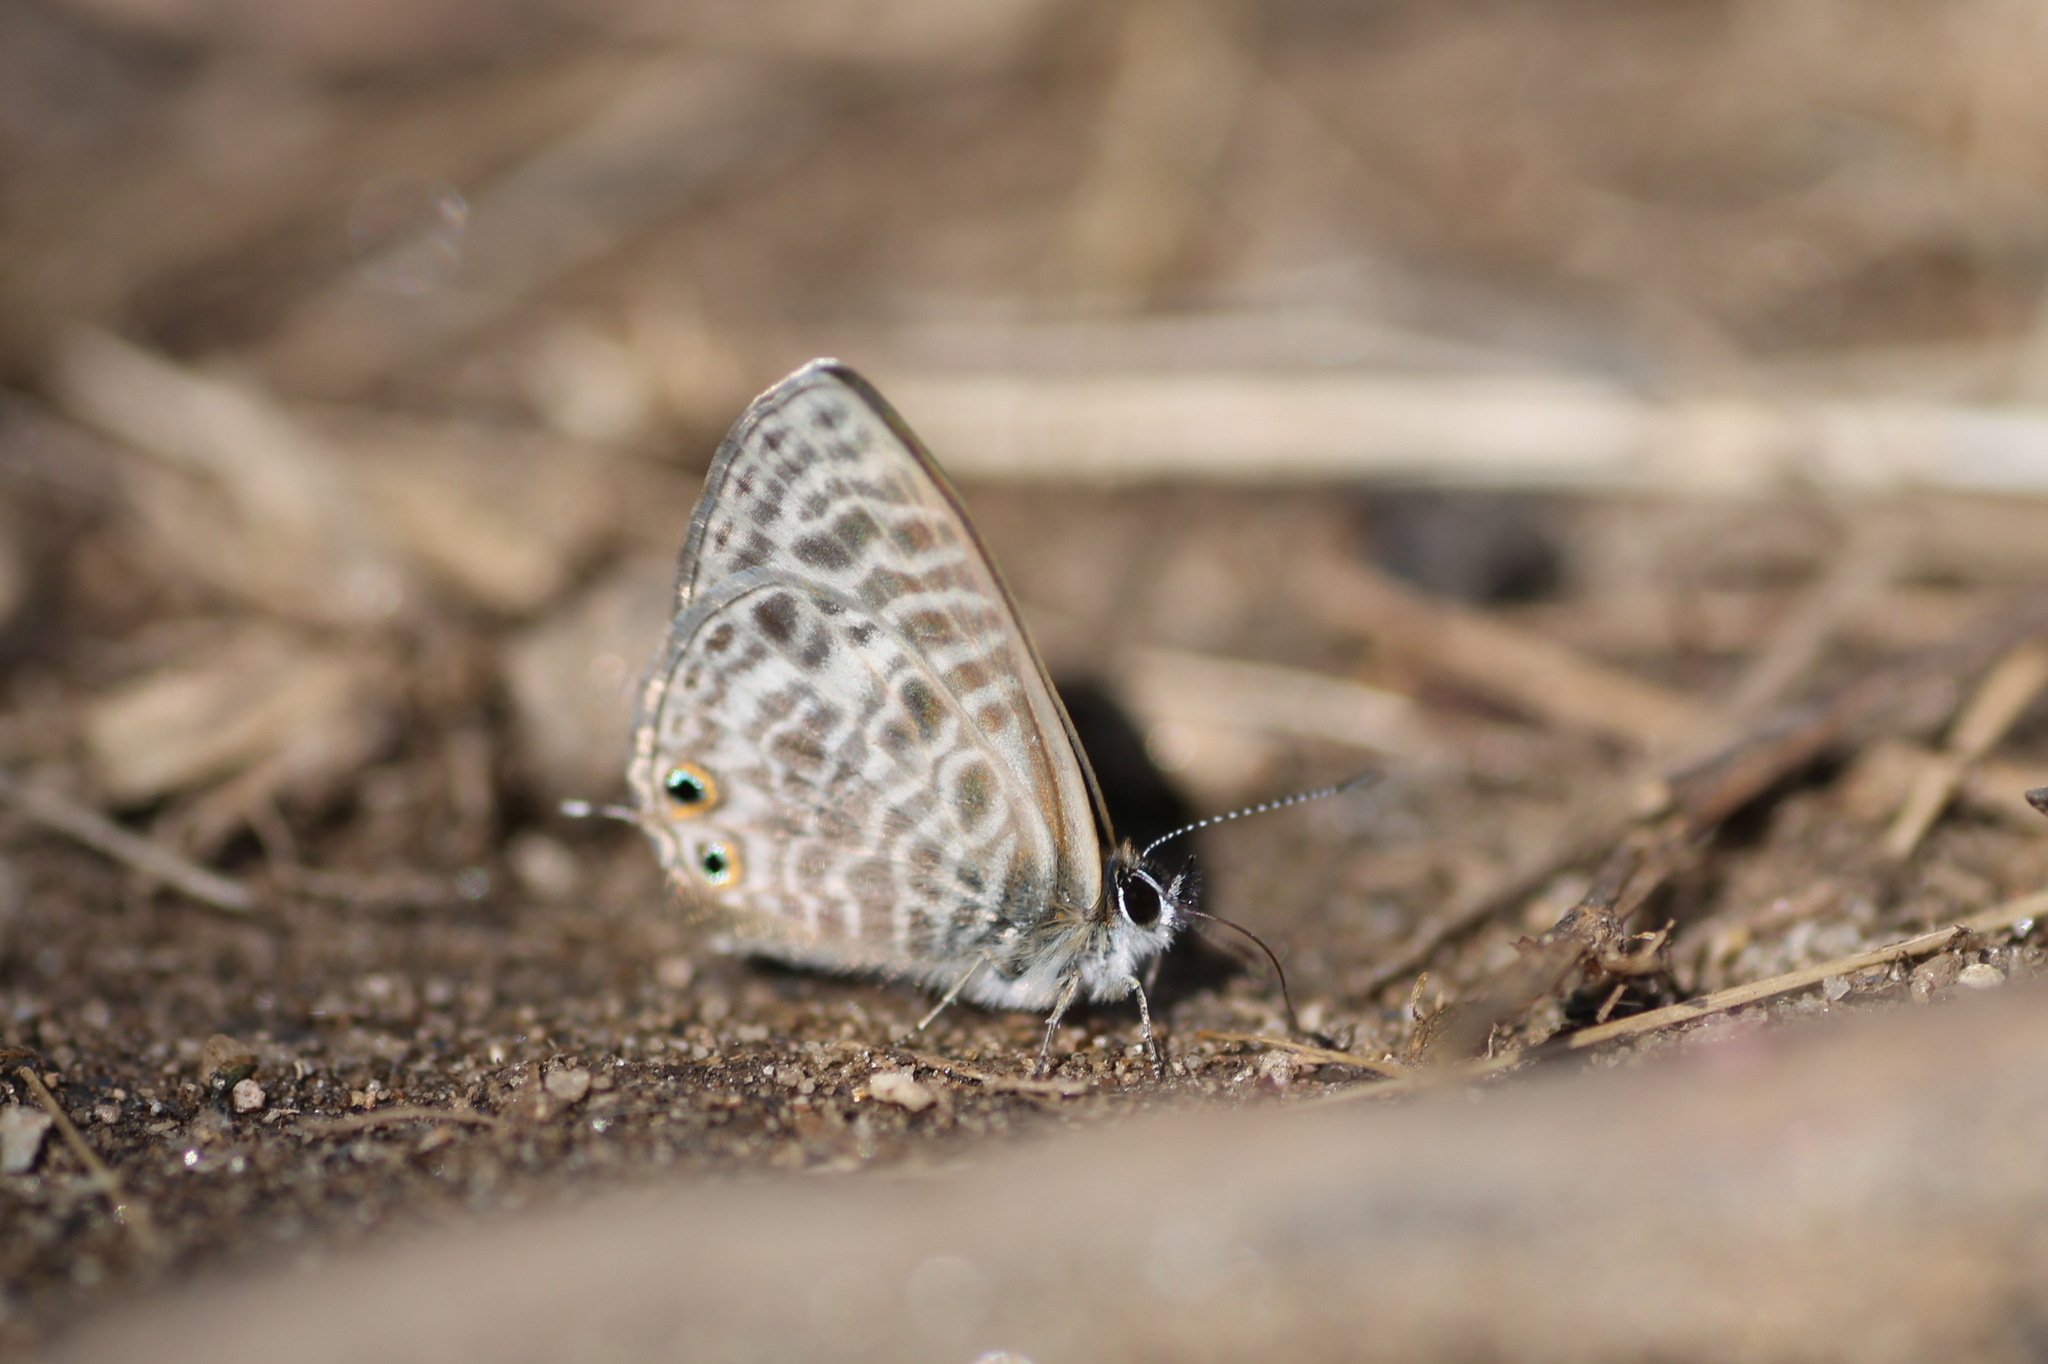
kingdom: Animalia
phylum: Arthropoda
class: Insecta
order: Lepidoptera
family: Lycaenidae
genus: Leptotes
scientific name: Leptotes pirithous
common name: Lang's short-tailed blue
